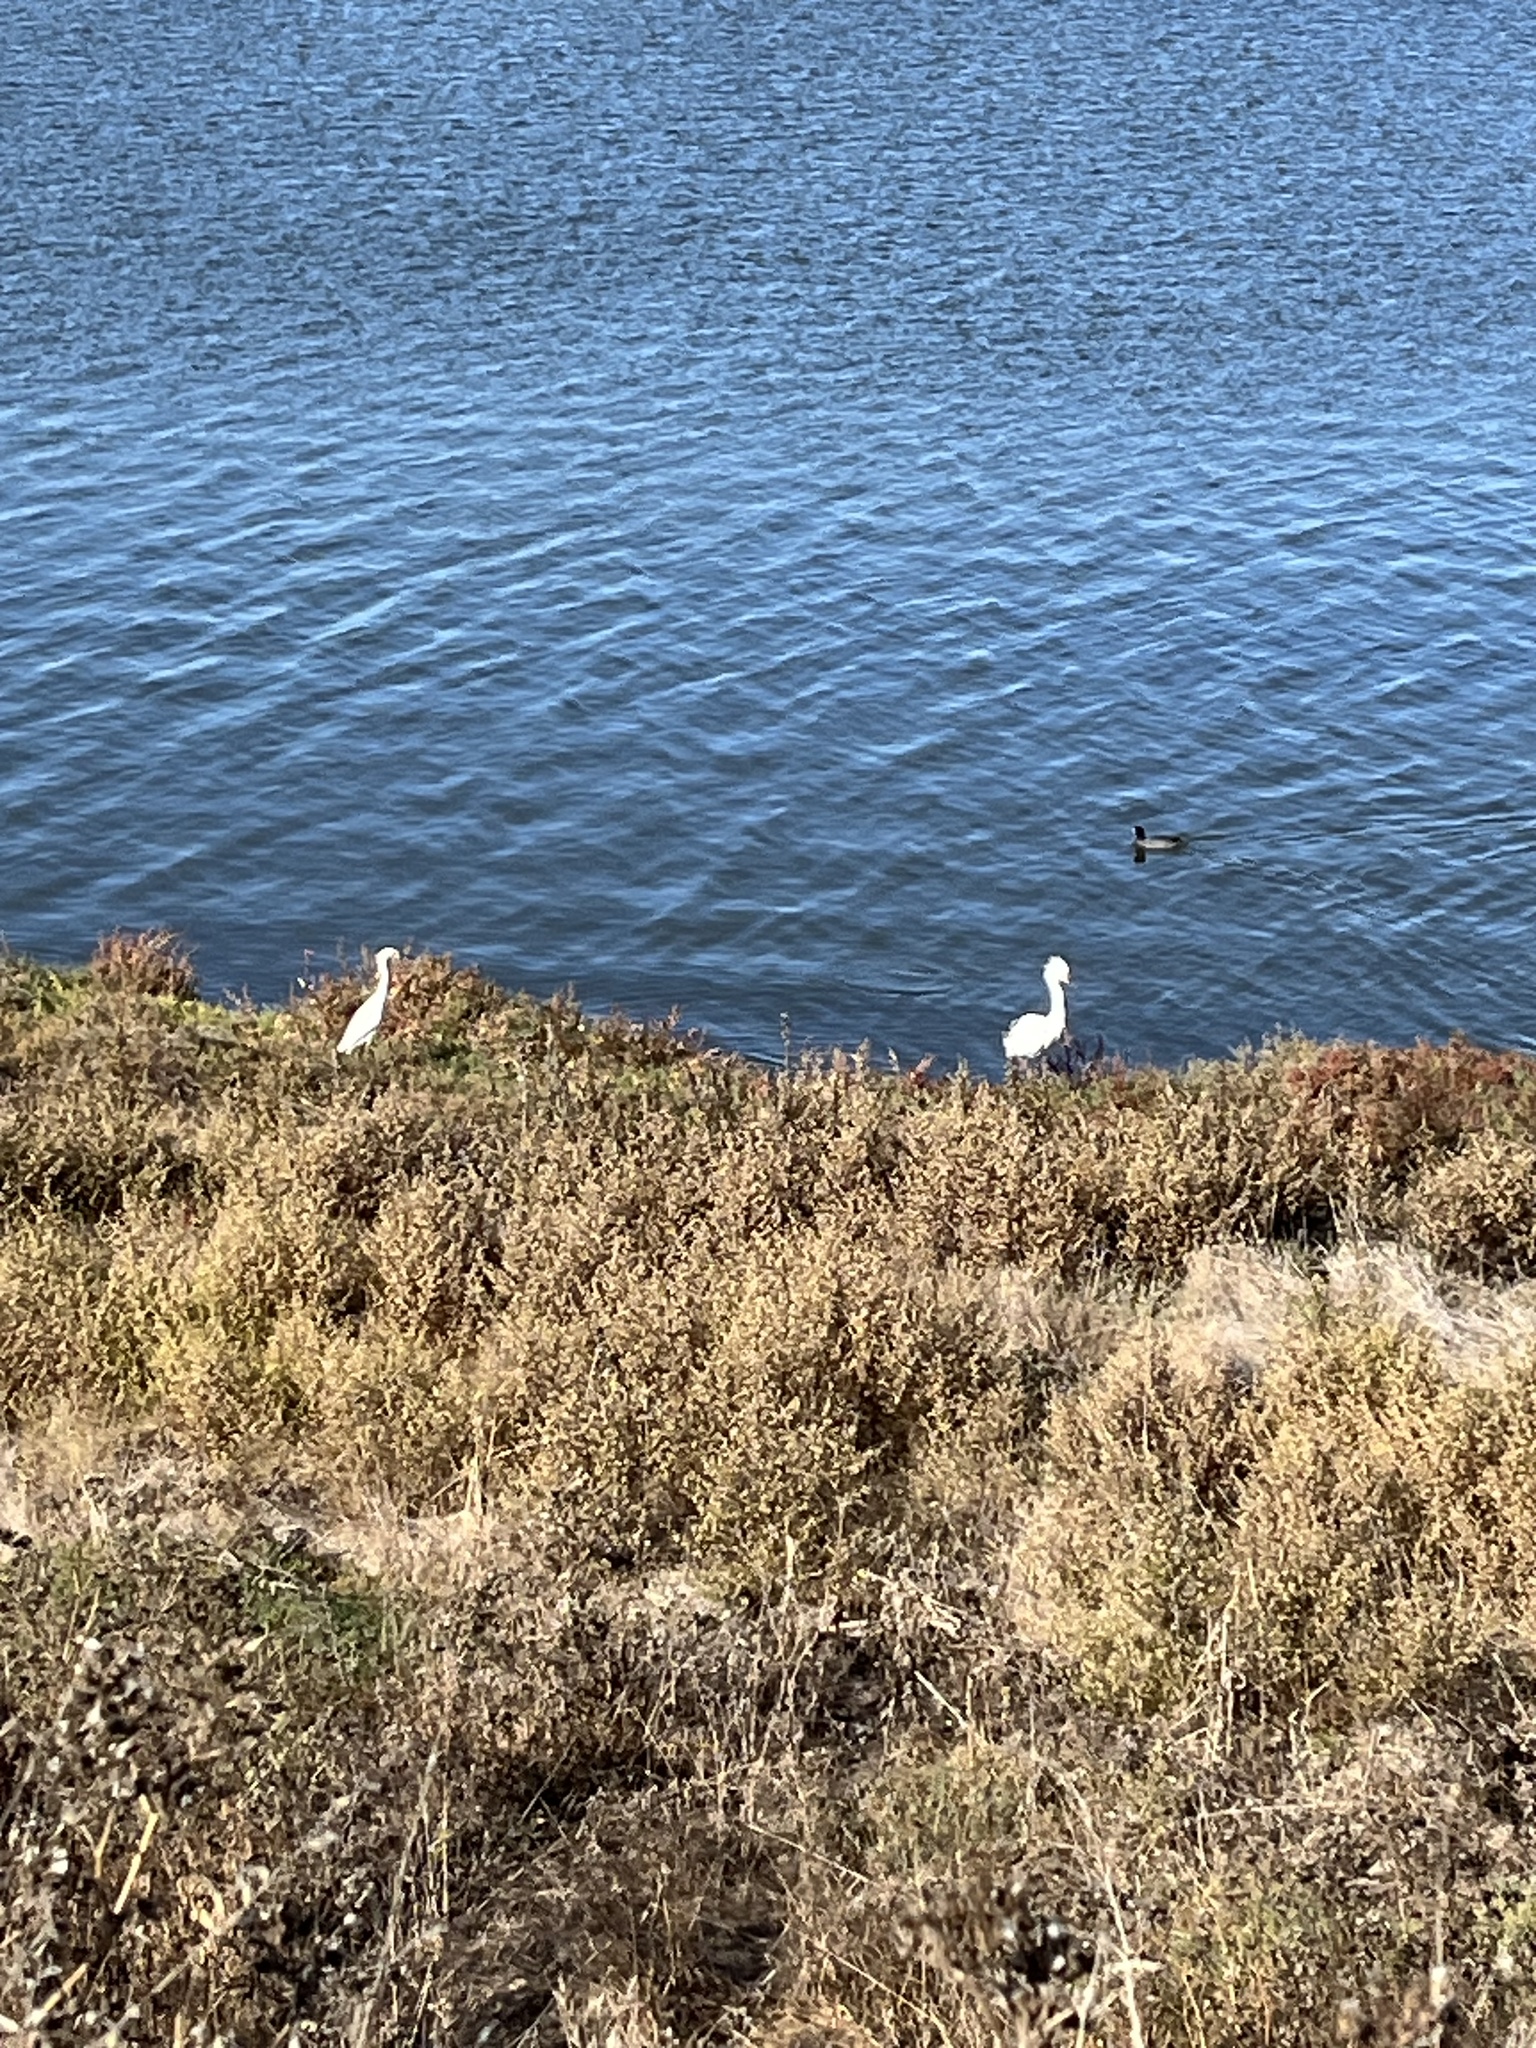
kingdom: Animalia
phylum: Chordata
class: Aves
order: Pelecaniformes
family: Ardeidae
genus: Egretta
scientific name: Egretta thula
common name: Snowy egret
